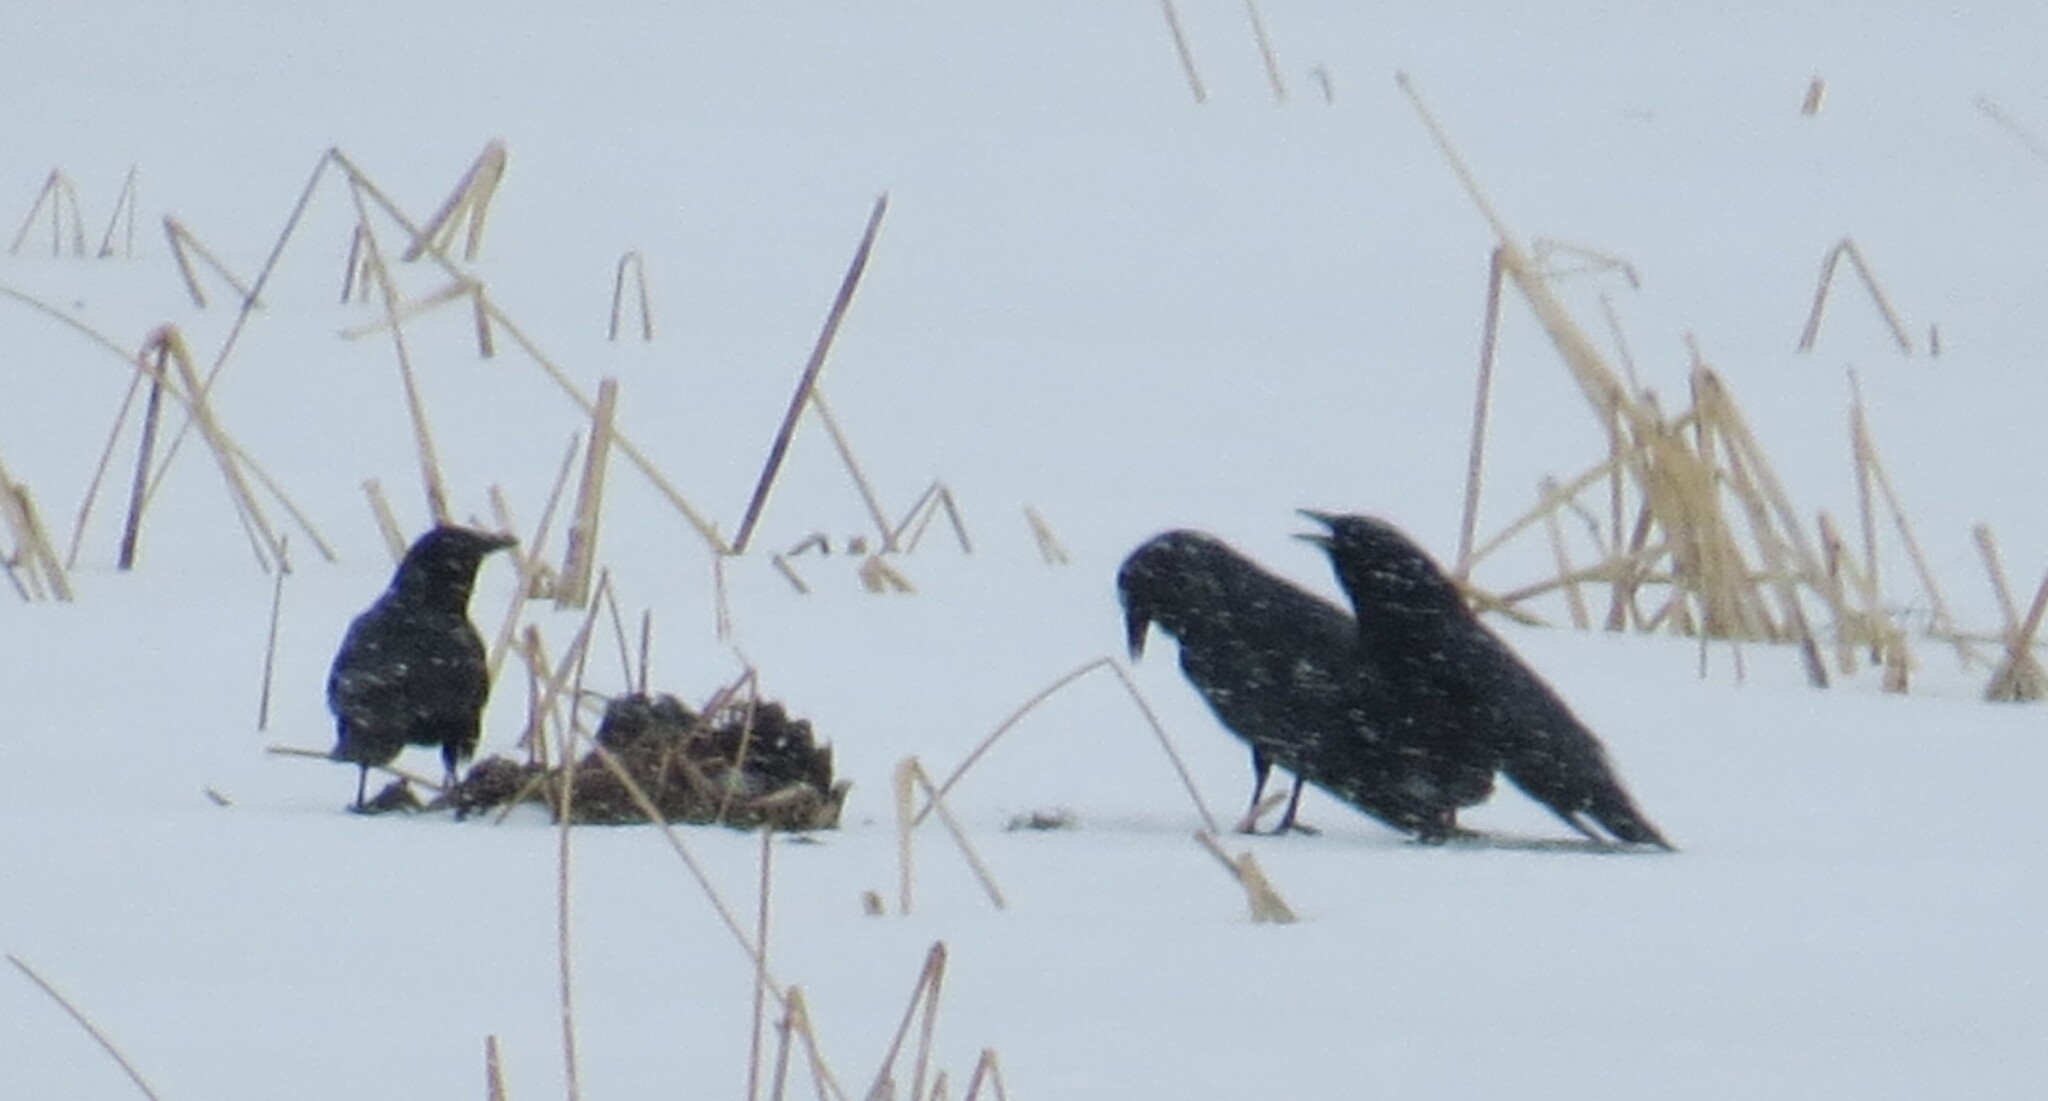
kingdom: Animalia
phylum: Chordata
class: Aves
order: Passeriformes
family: Corvidae
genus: Corvus
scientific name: Corvus brachyrhynchos
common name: American crow
